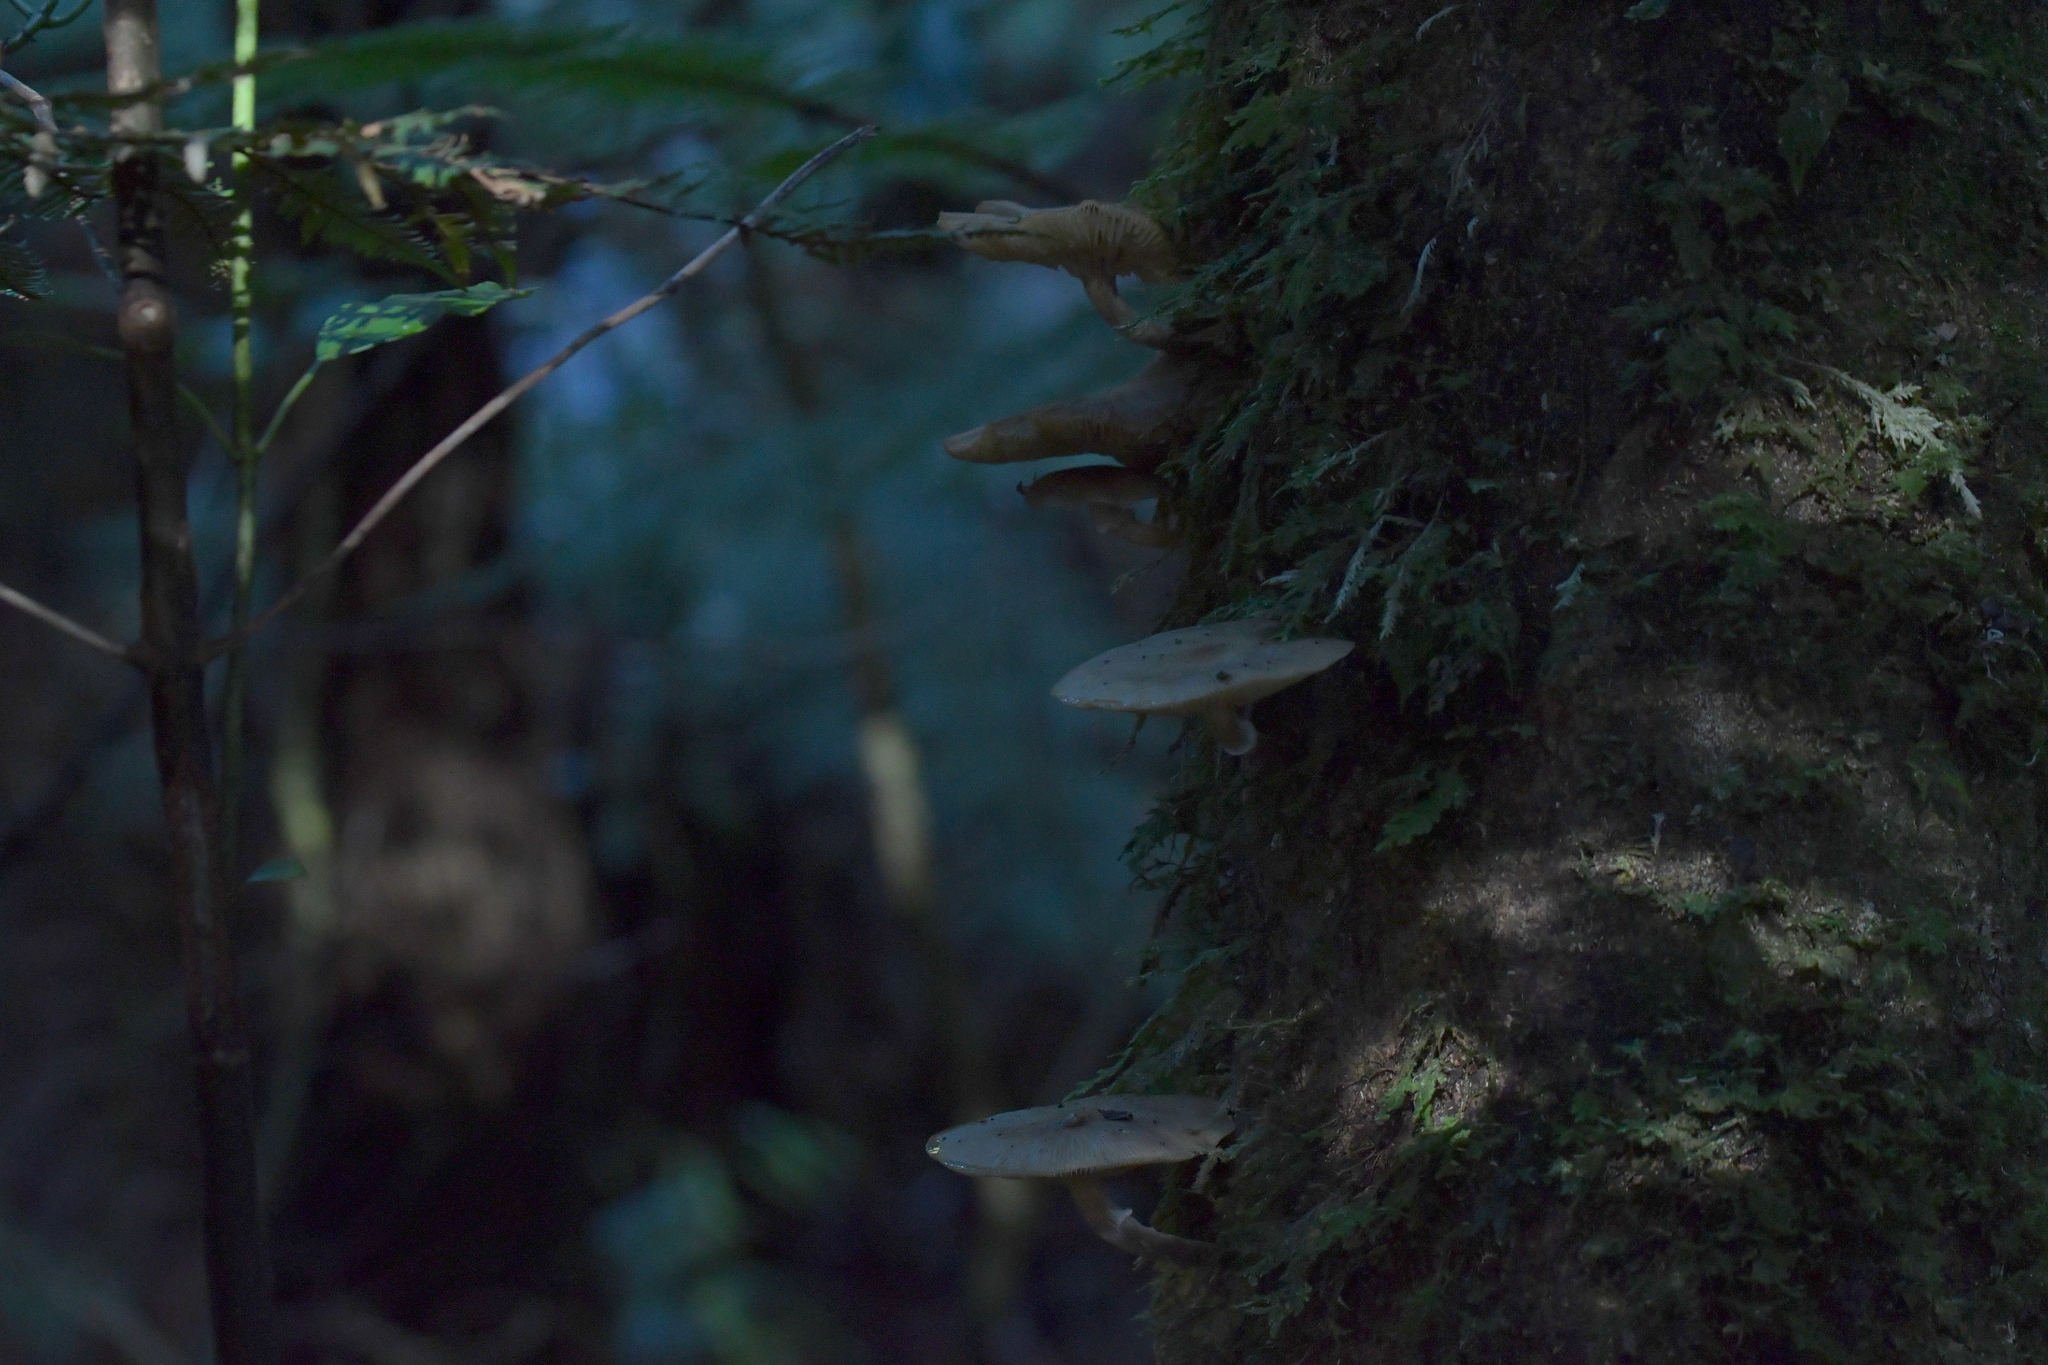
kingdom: Fungi
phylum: Basidiomycota
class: Agaricomycetes
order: Agaricales
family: Physalacriaceae
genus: Armillaria
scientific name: Armillaria novae-zelandiae
